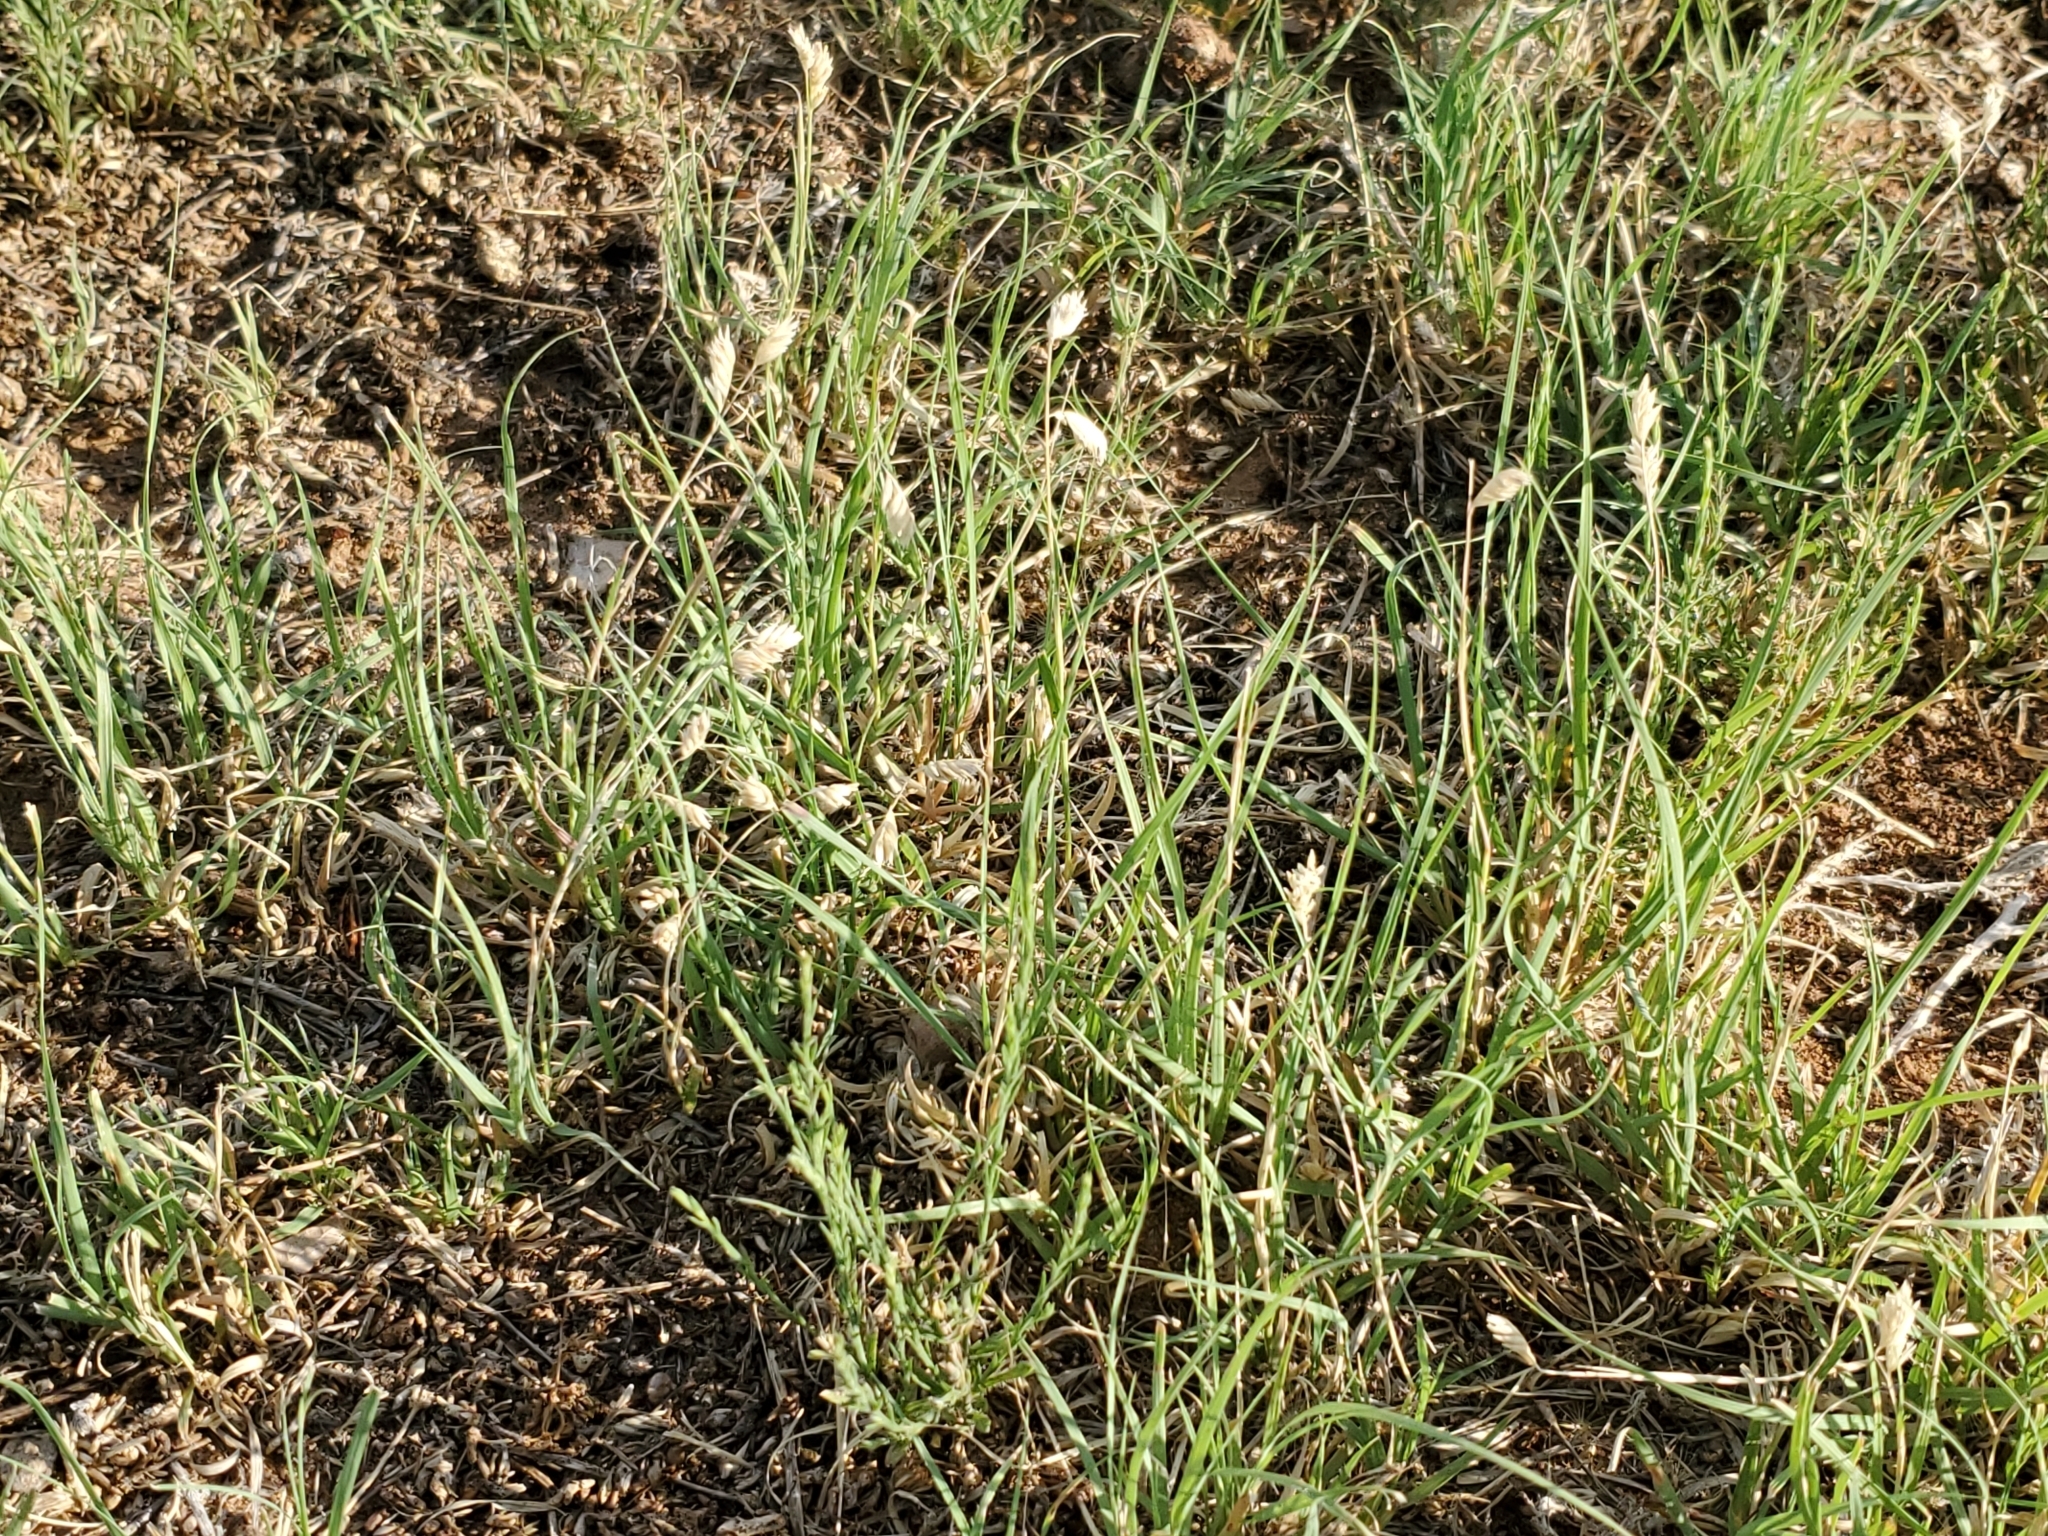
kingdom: Plantae
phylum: Tracheophyta
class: Liliopsida
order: Poales
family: Poaceae
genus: Bouteloua
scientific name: Bouteloua dactyloides
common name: Buffalo grass
